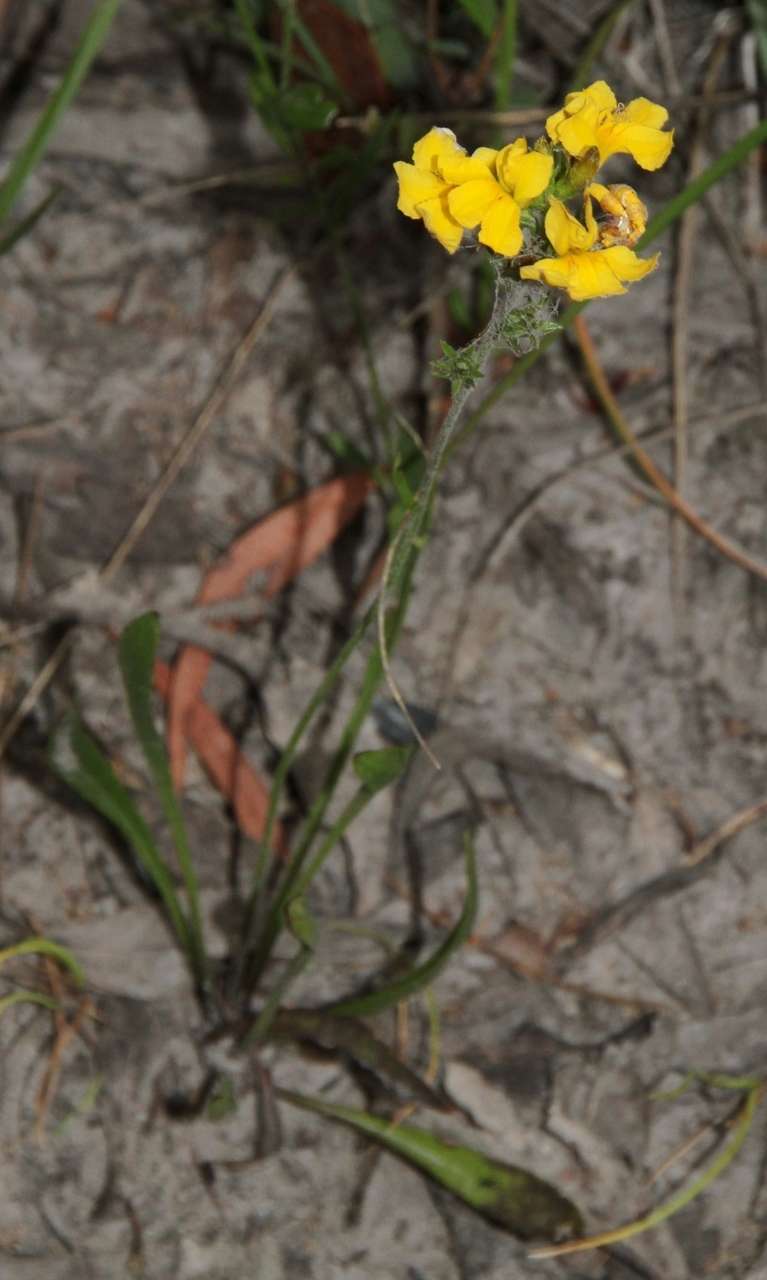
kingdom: Plantae
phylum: Tracheophyta
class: Magnoliopsida
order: Asterales
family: Goodeniaceae
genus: Goodenia
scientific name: Goodenia bellidifolia
